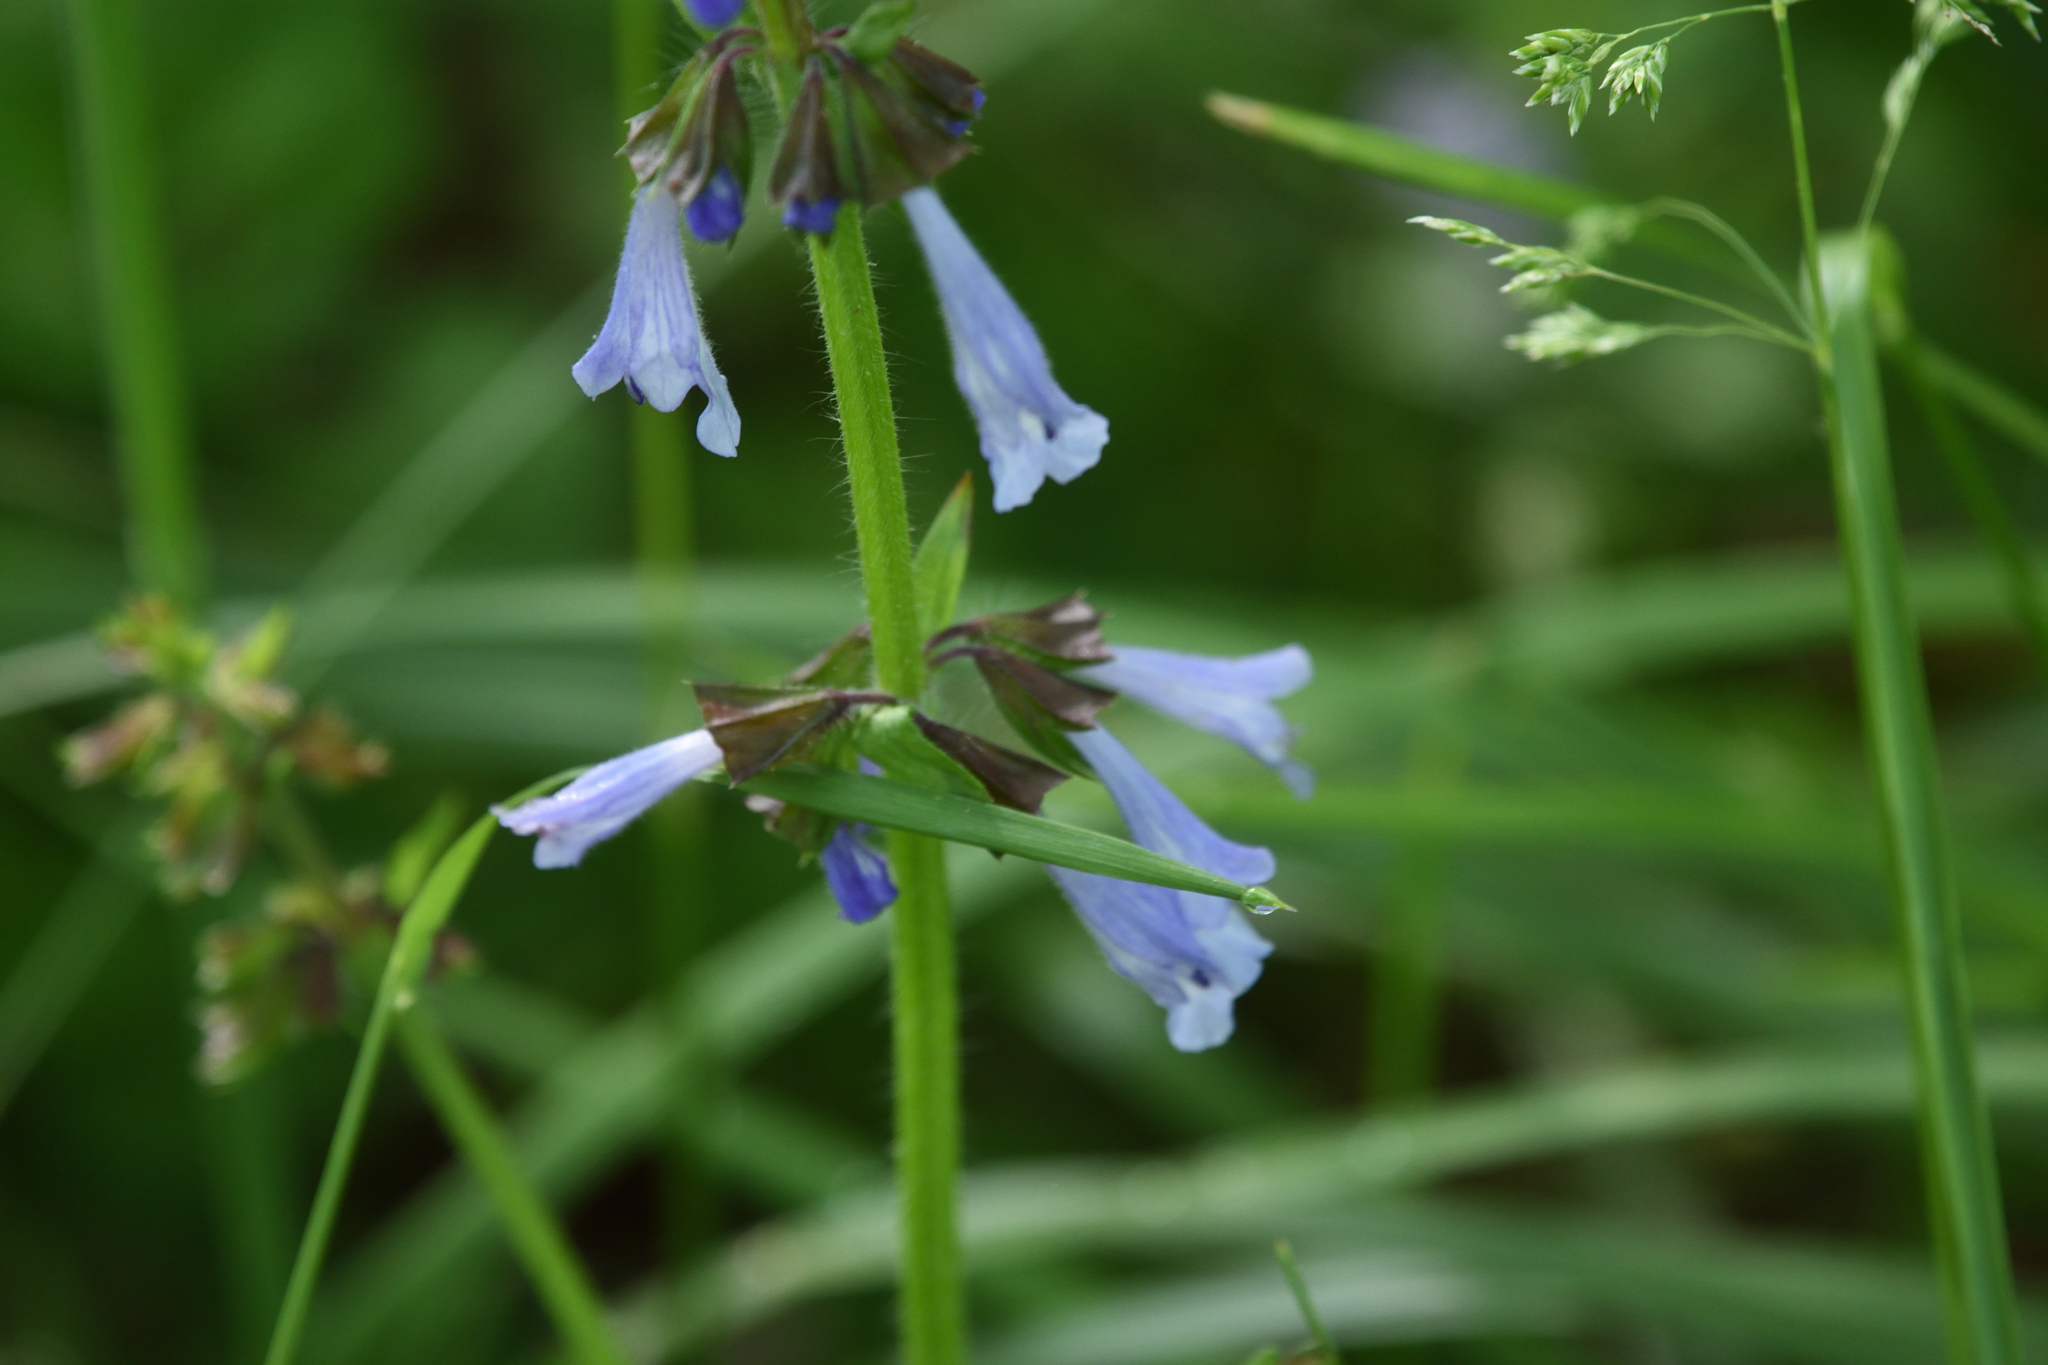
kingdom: Plantae
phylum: Tracheophyta
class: Magnoliopsida
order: Lamiales
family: Lamiaceae
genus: Salvia
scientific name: Salvia lyrata
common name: Cancerweed
